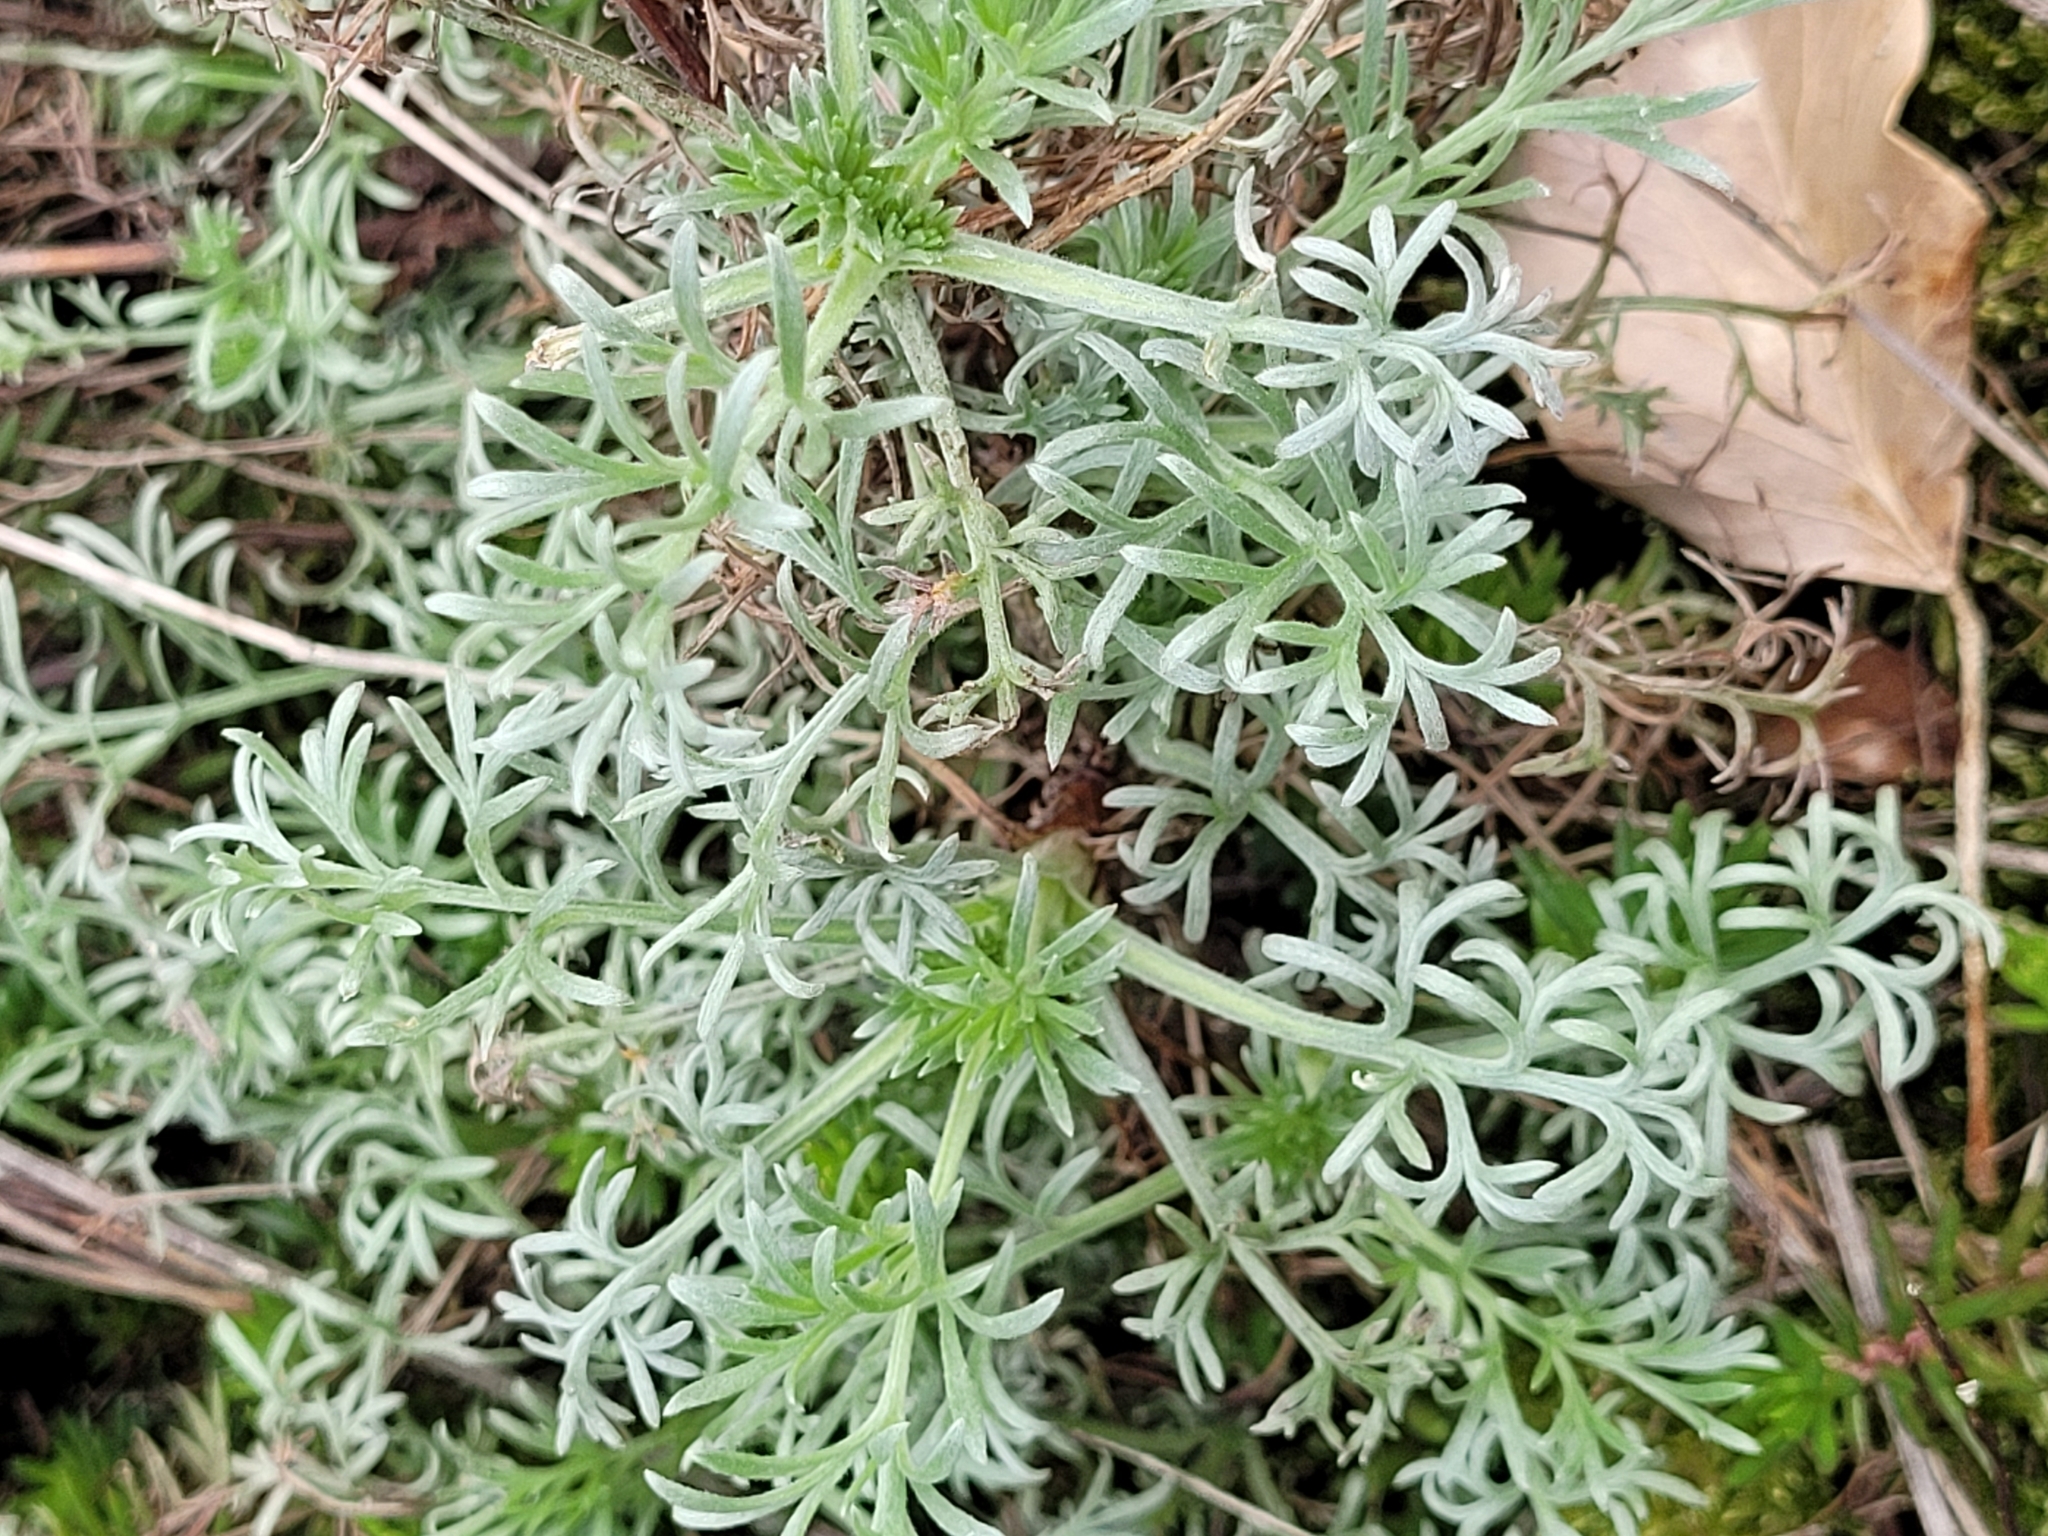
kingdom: Plantae
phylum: Tracheophyta
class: Magnoliopsida
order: Asterales
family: Asteraceae
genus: Artemisia
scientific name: Artemisia campestris
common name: Field wormwood
